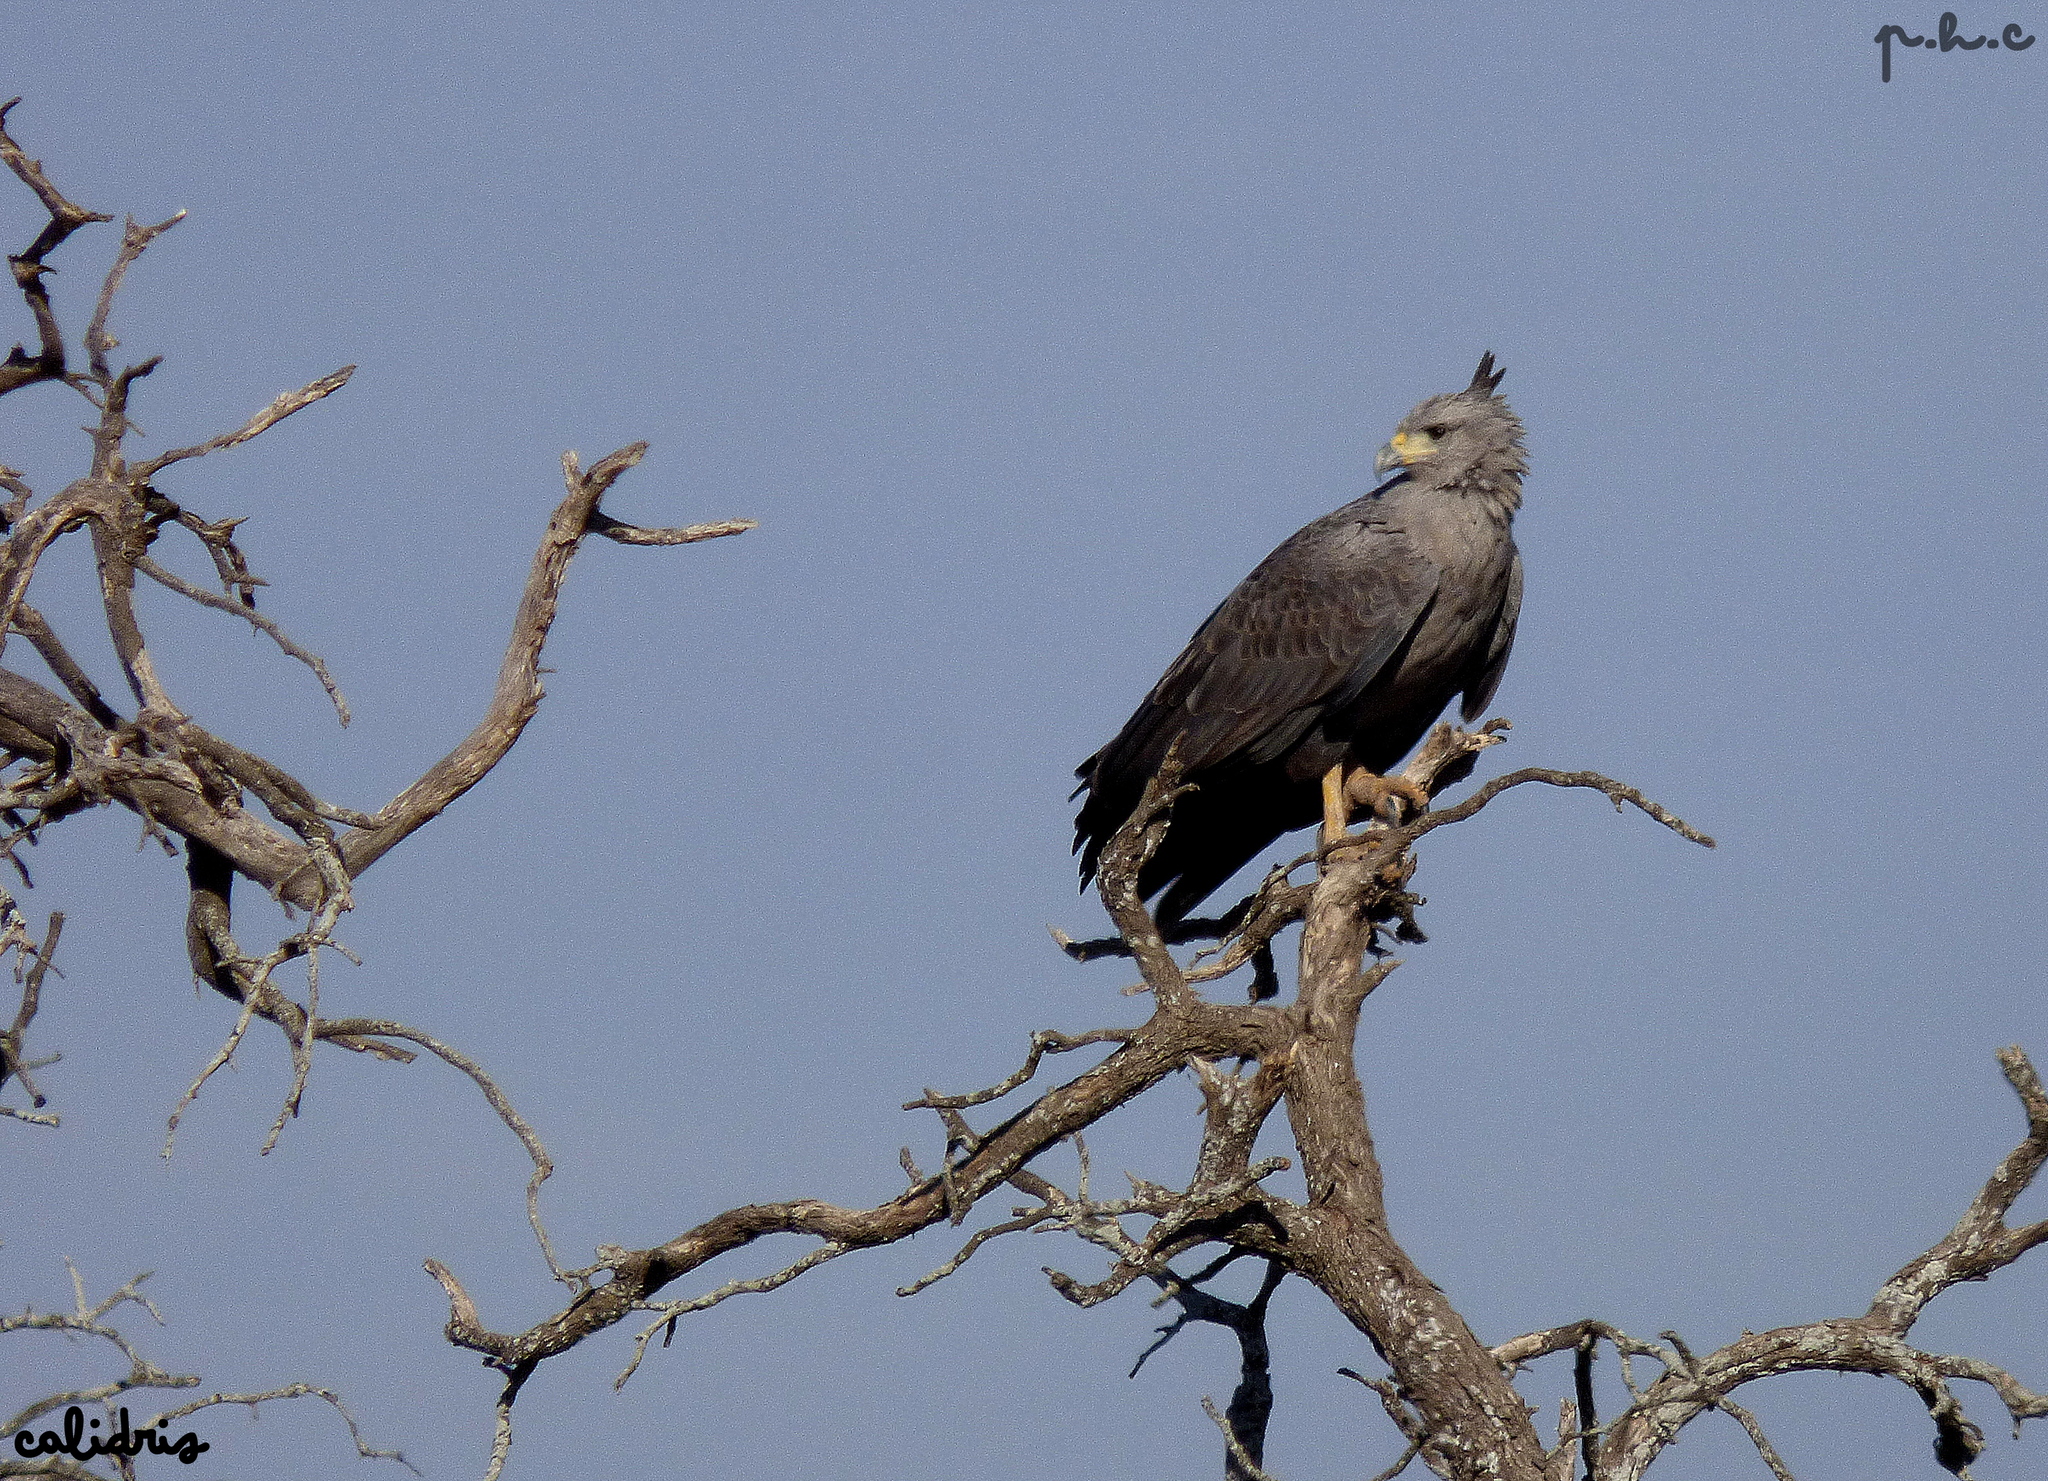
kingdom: Animalia
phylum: Chordata
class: Aves
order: Accipitriformes
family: Accipitridae
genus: Harpyhaliaetus
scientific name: Harpyhaliaetus coronatus
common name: Crowned solitary eagle
